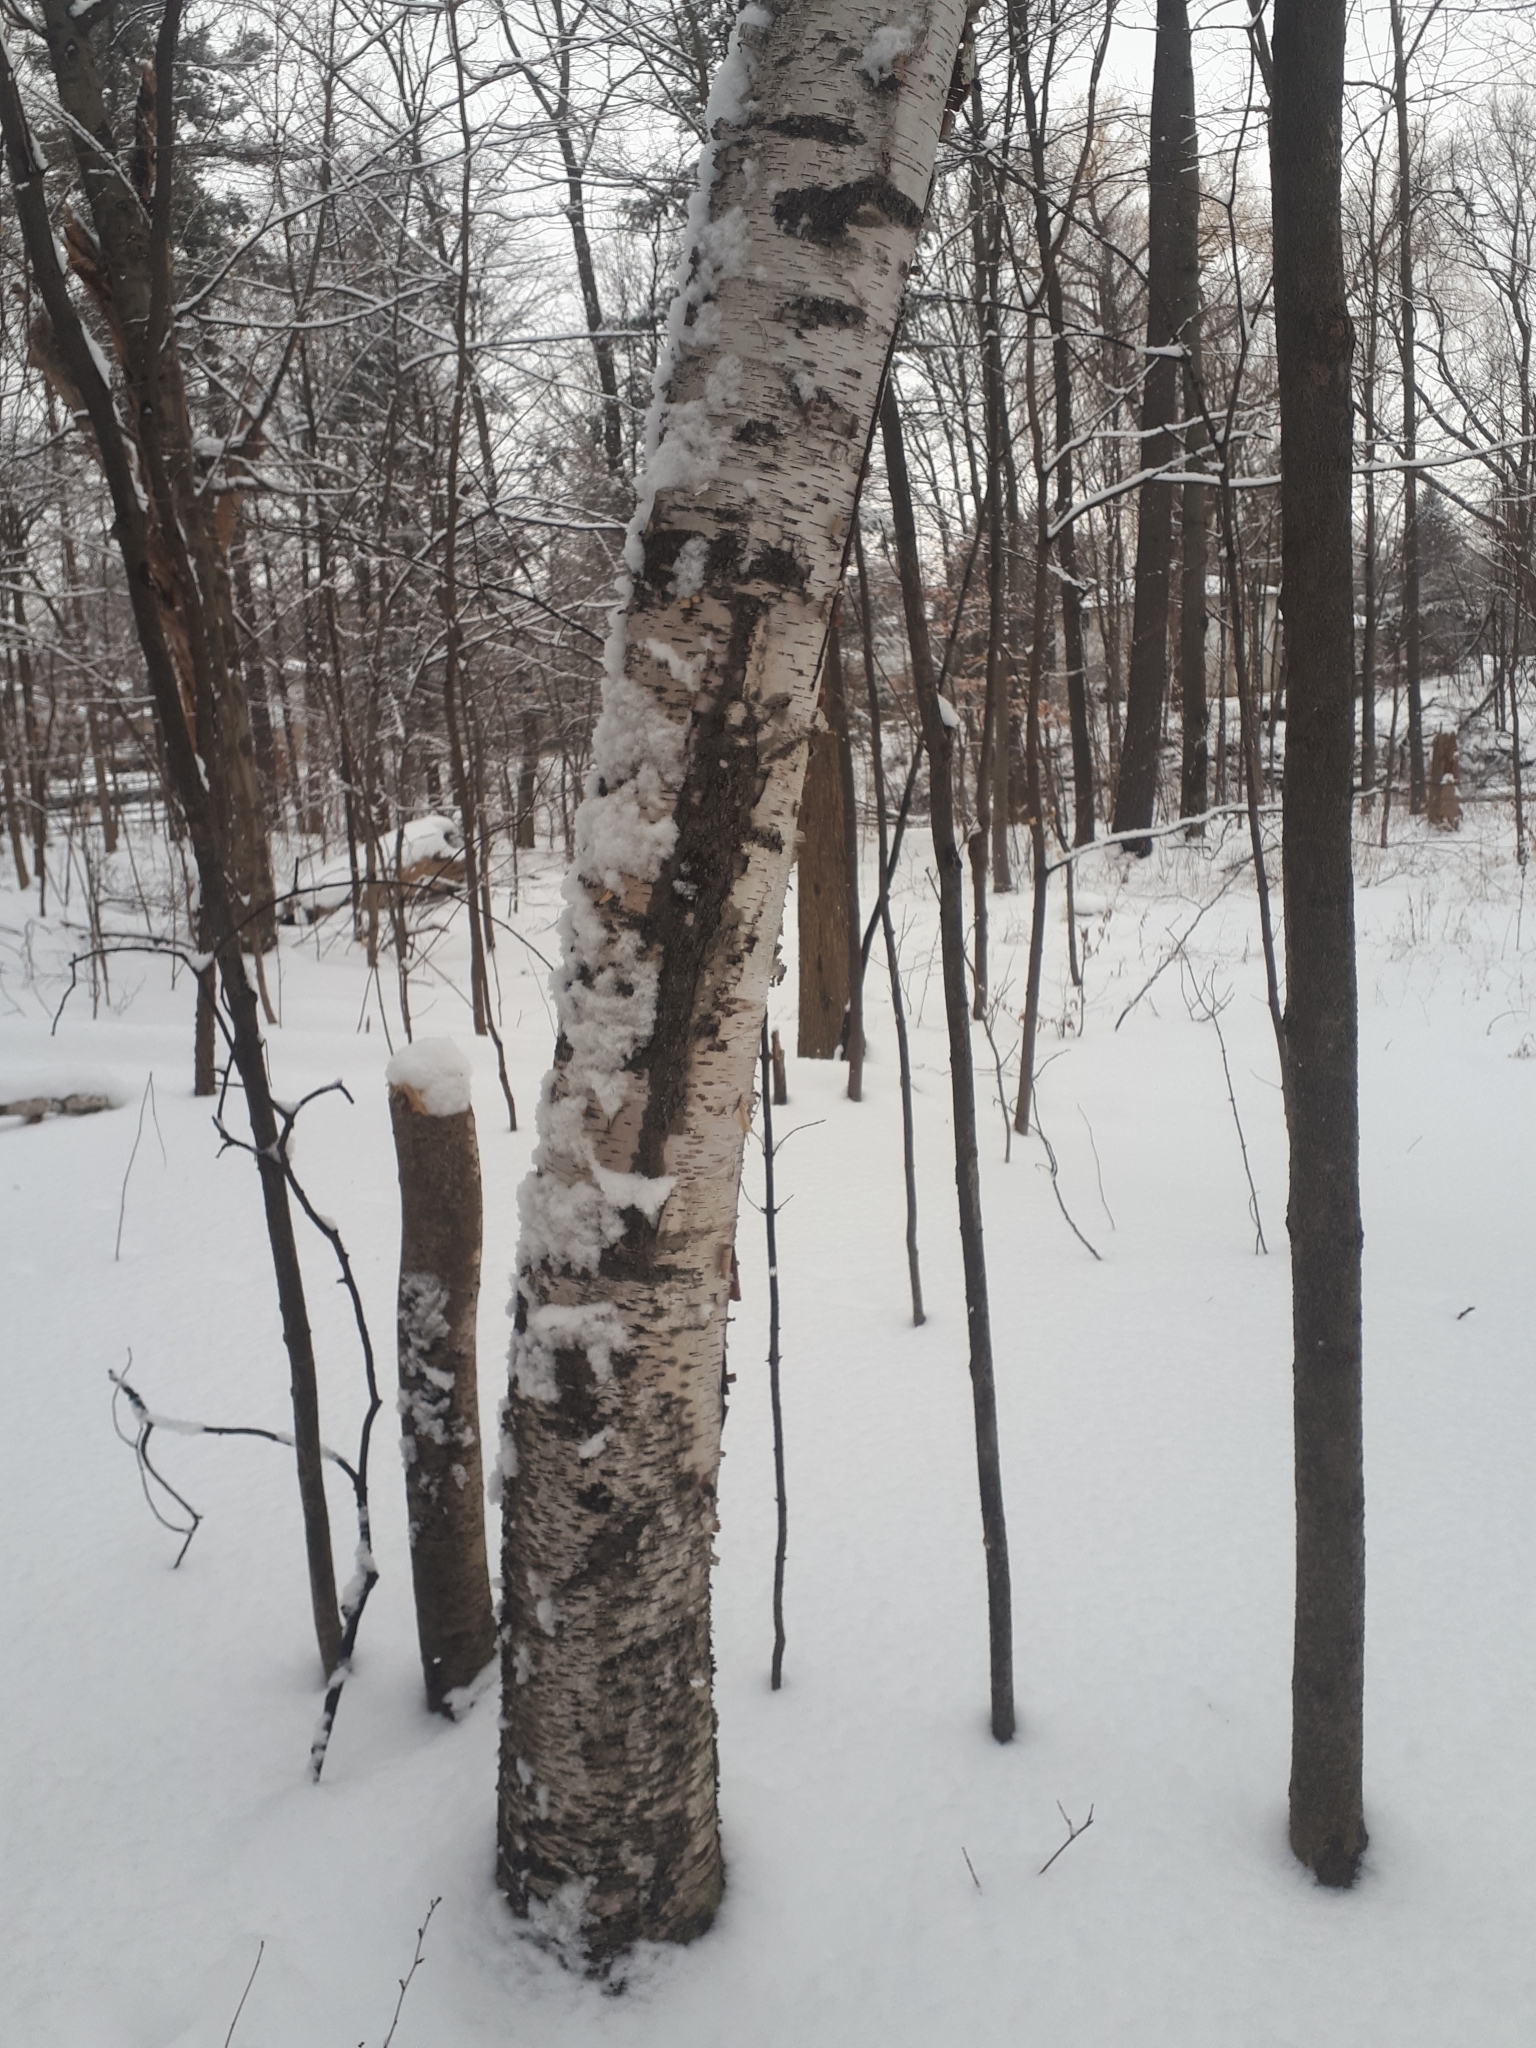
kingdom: Plantae
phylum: Tracheophyta
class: Magnoliopsida
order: Fagales
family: Betulaceae
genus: Betula
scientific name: Betula papyrifera
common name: Paper birch
